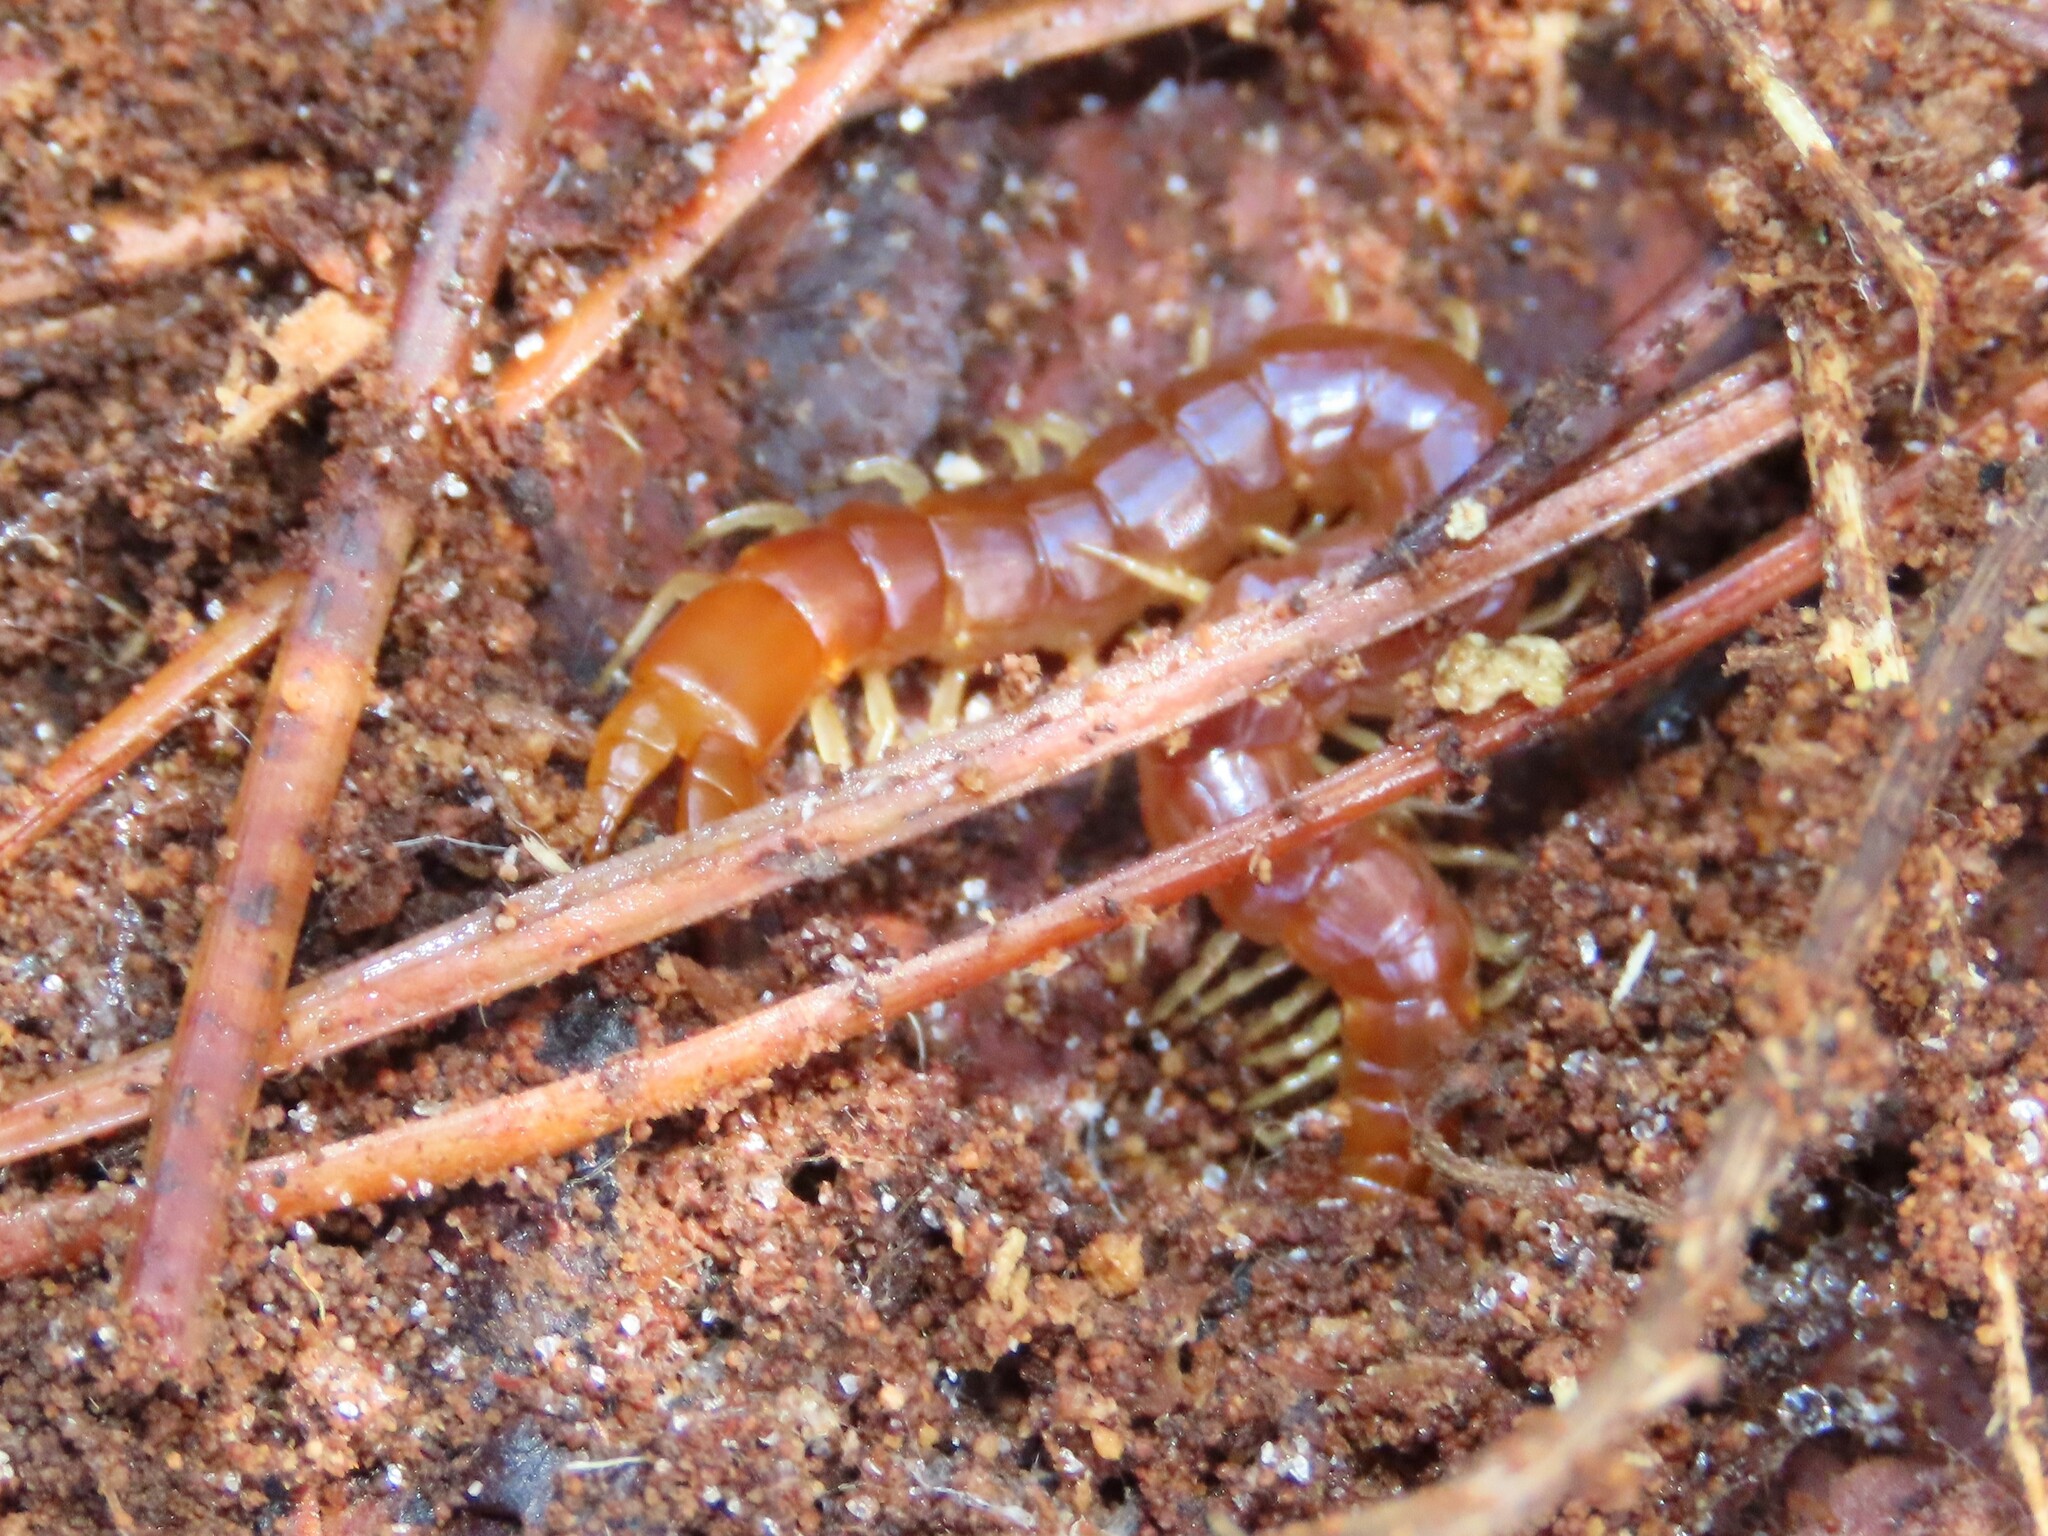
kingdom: Animalia
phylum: Arthropoda
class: Chilopoda
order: Scolopendromorpha
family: Cryptopidae
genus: Theatops
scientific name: Theatops posticus
